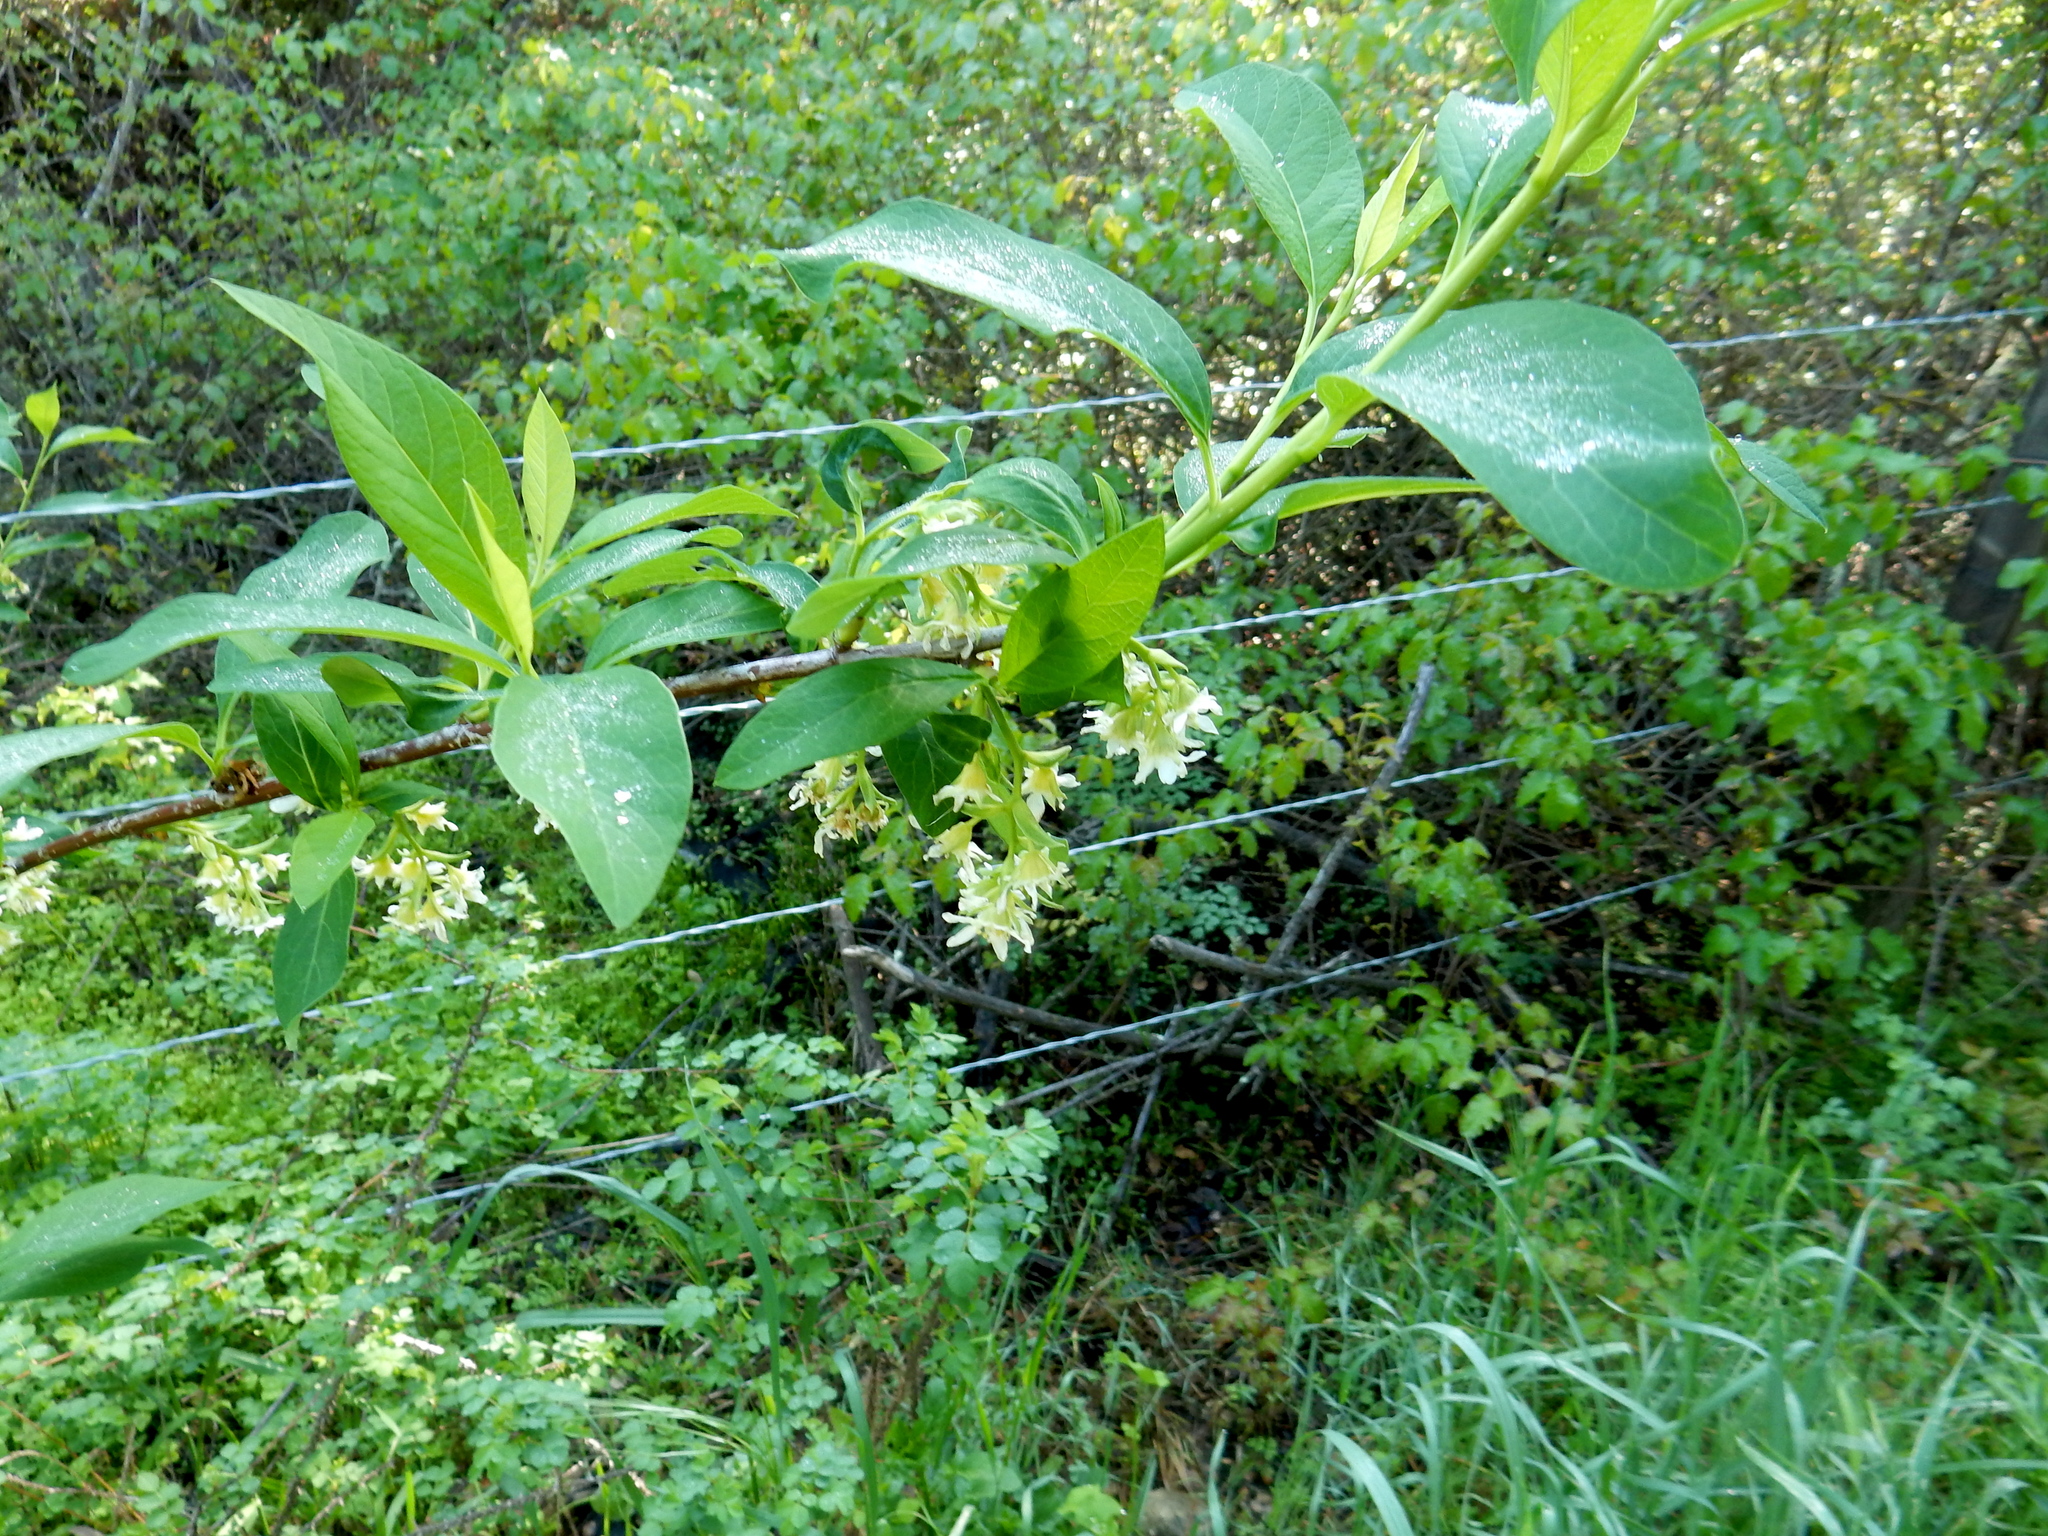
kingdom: Plantae
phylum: Tracheophyta
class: Magnoliopsida
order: Rosales
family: Rosaceae
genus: Oemleria
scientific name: Oemleria cerasiformis
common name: Osoberry
